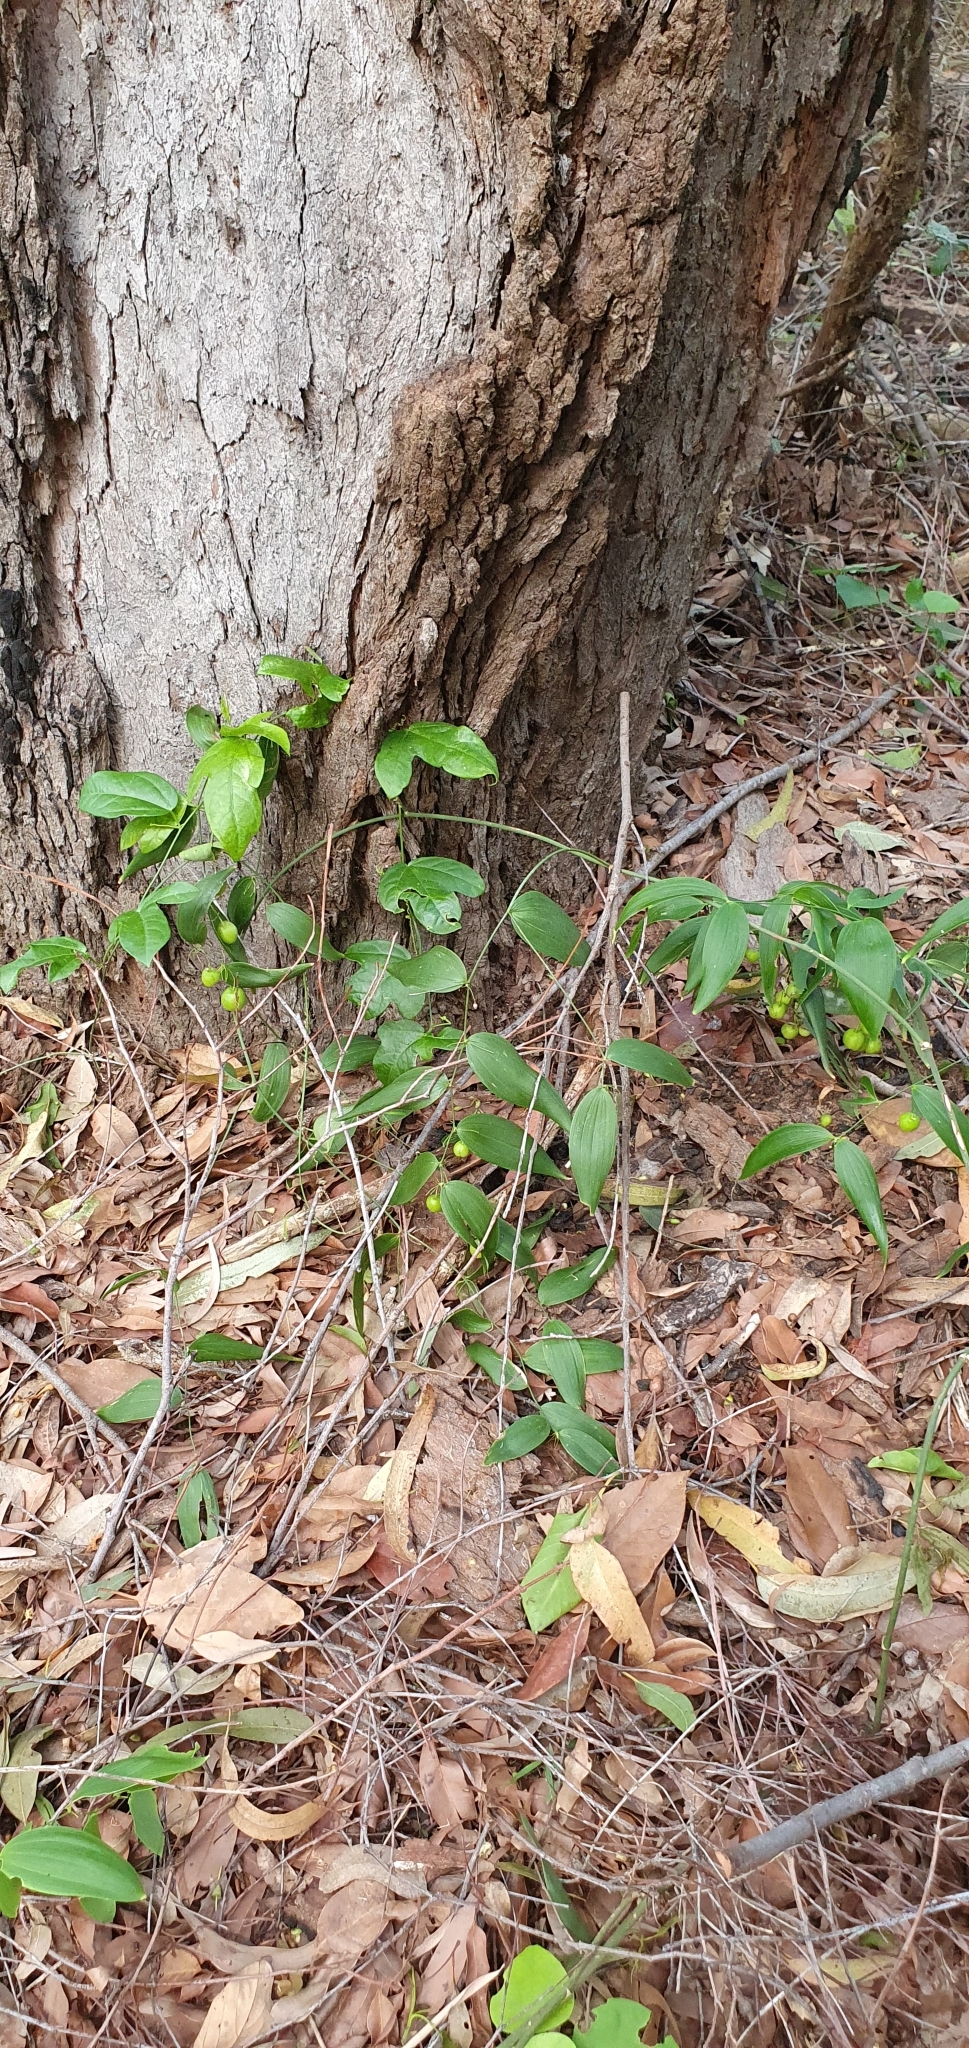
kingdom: Plantae
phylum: Tracheophyta
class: Liliopsida
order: Asparagales
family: Asparagaceae
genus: Eustrephus
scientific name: Eustrephus latifolius
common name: Orangevine
